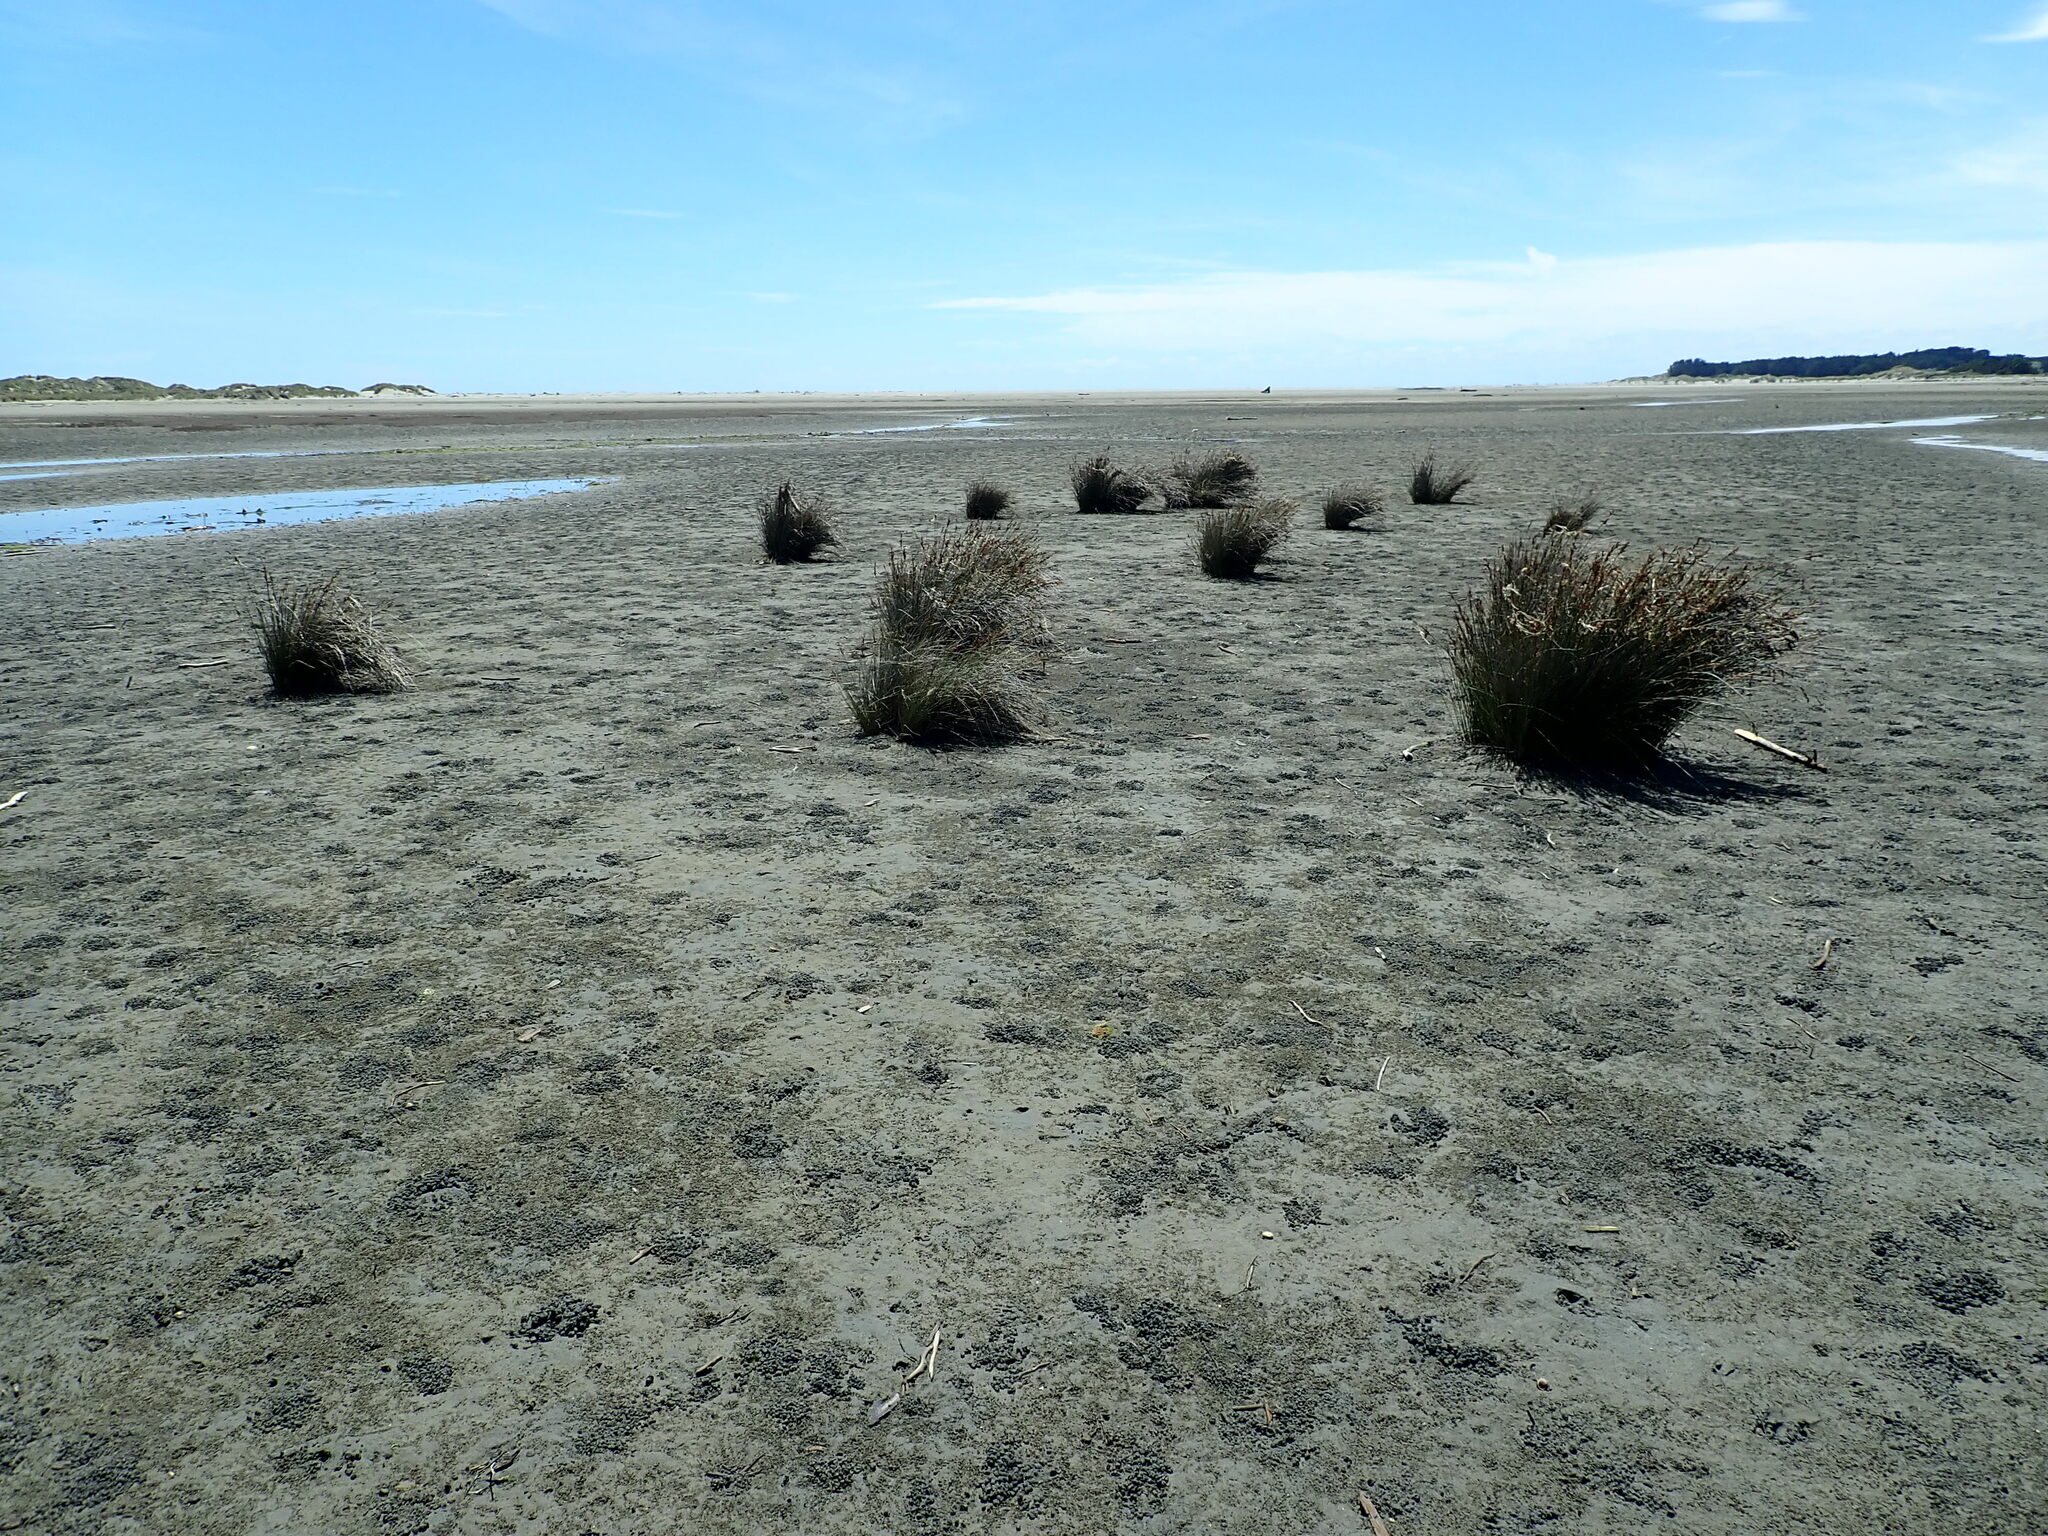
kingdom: Plantae
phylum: Tracheophyta
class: Liliopsida
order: Poales
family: Juncaceae
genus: Juncus
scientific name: Juncus kraussii
